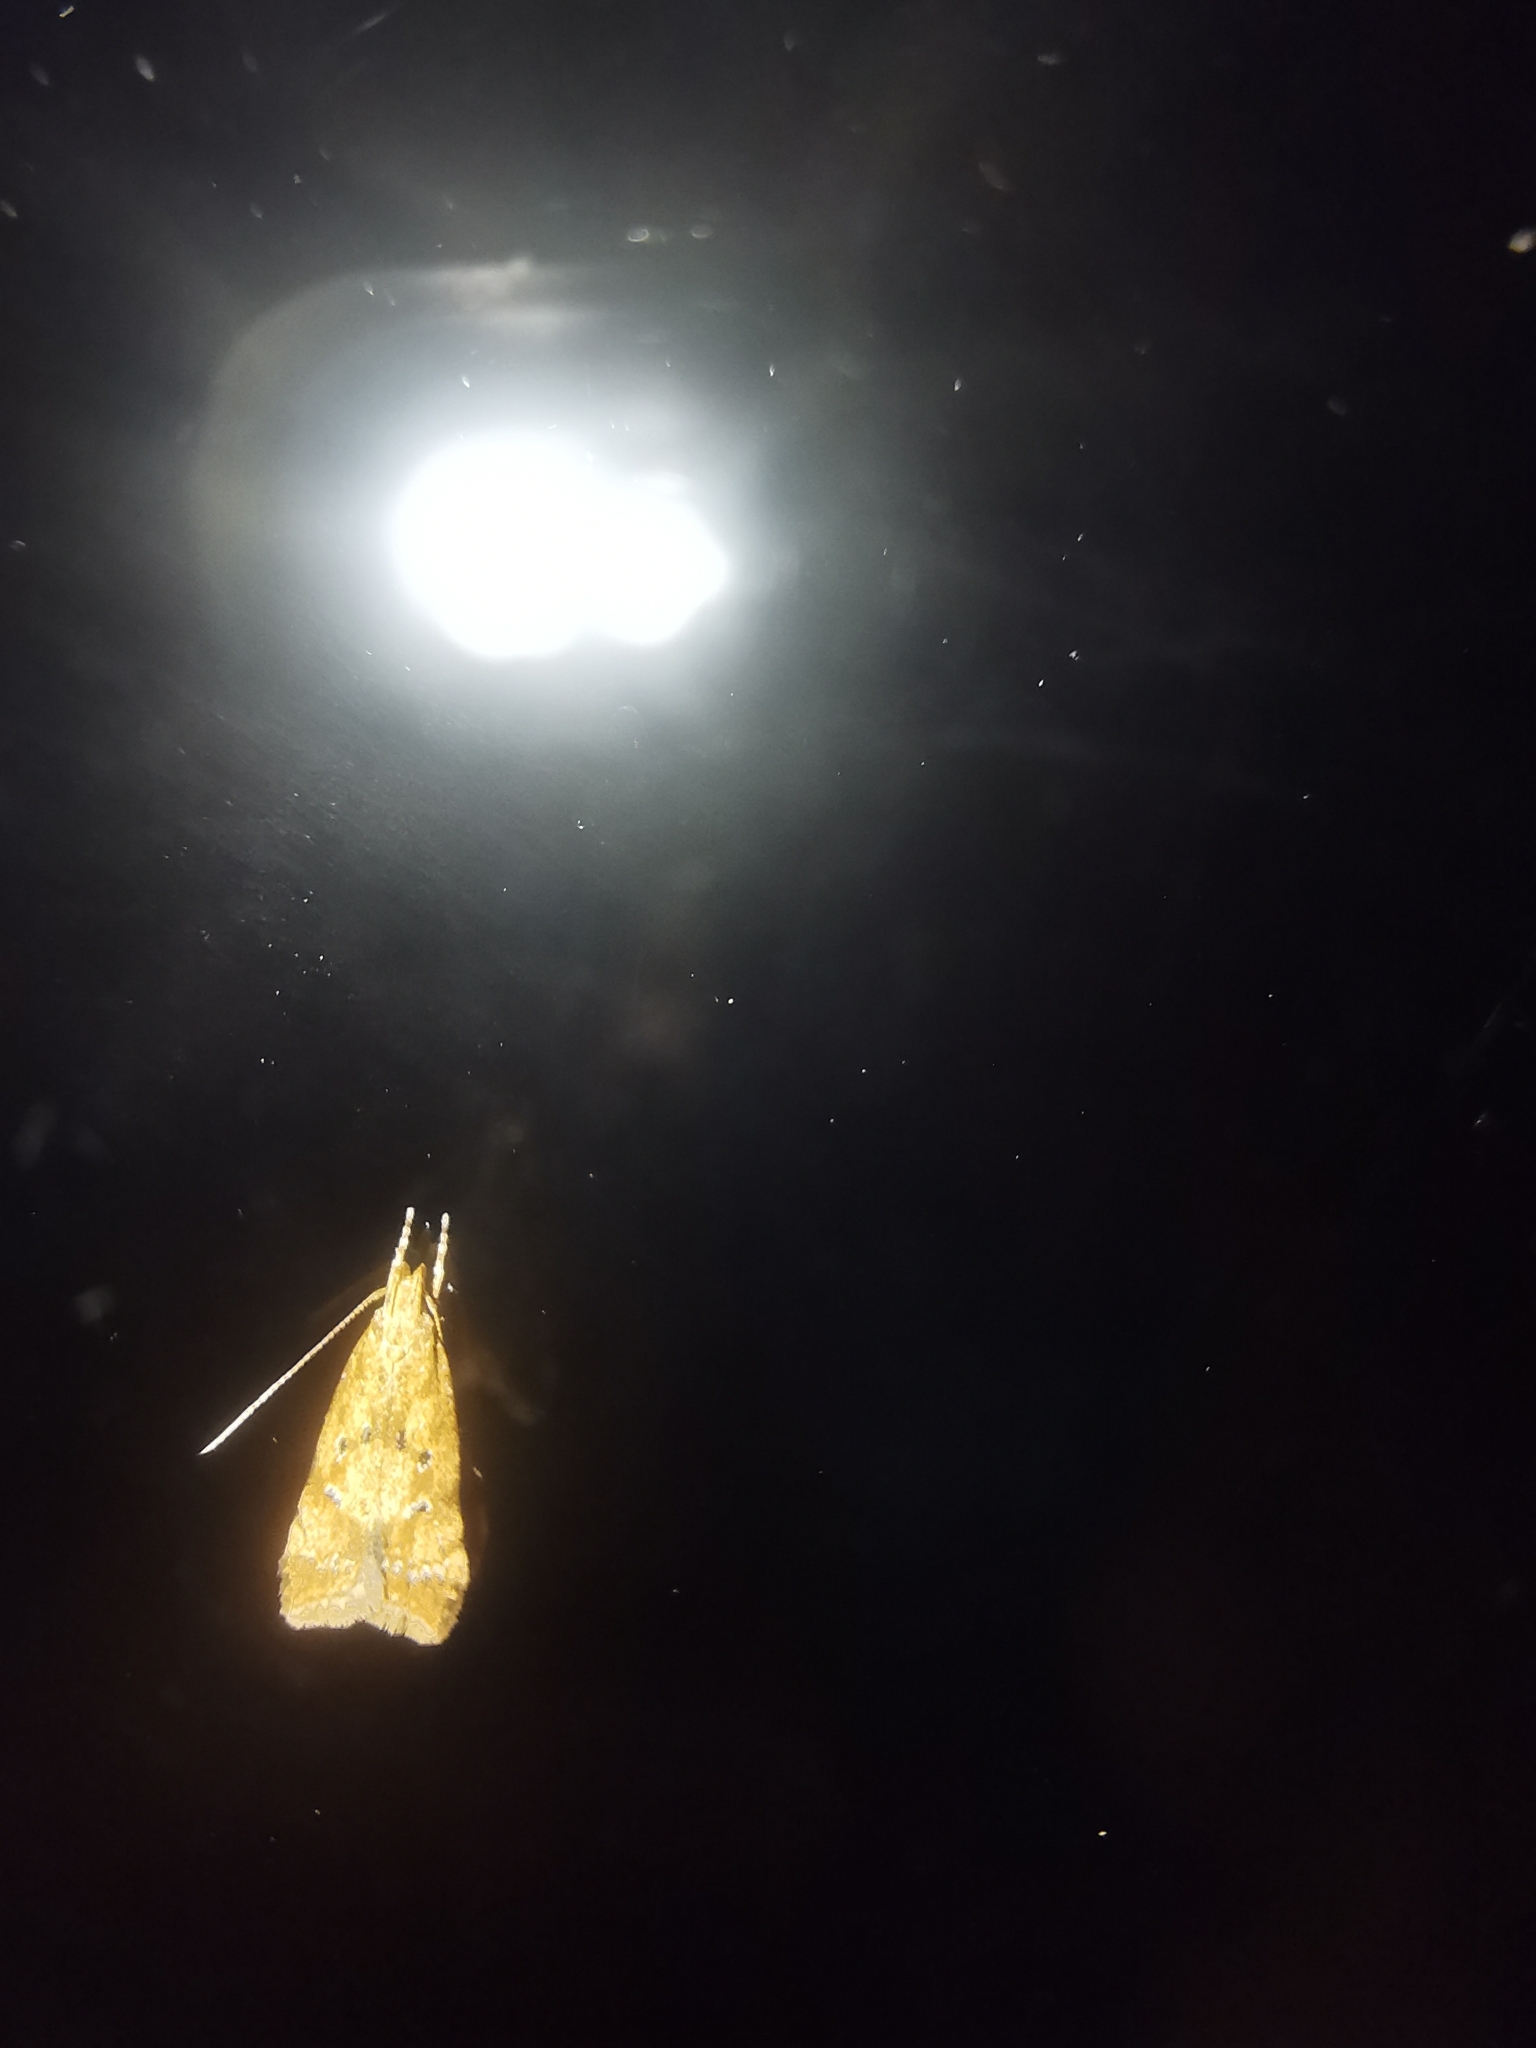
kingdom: Animalia
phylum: Arthropoda
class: Insecta
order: Lepidoptera
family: Gelechiidae
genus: Brachmia
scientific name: Brachmia blandella
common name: Gorse crest
